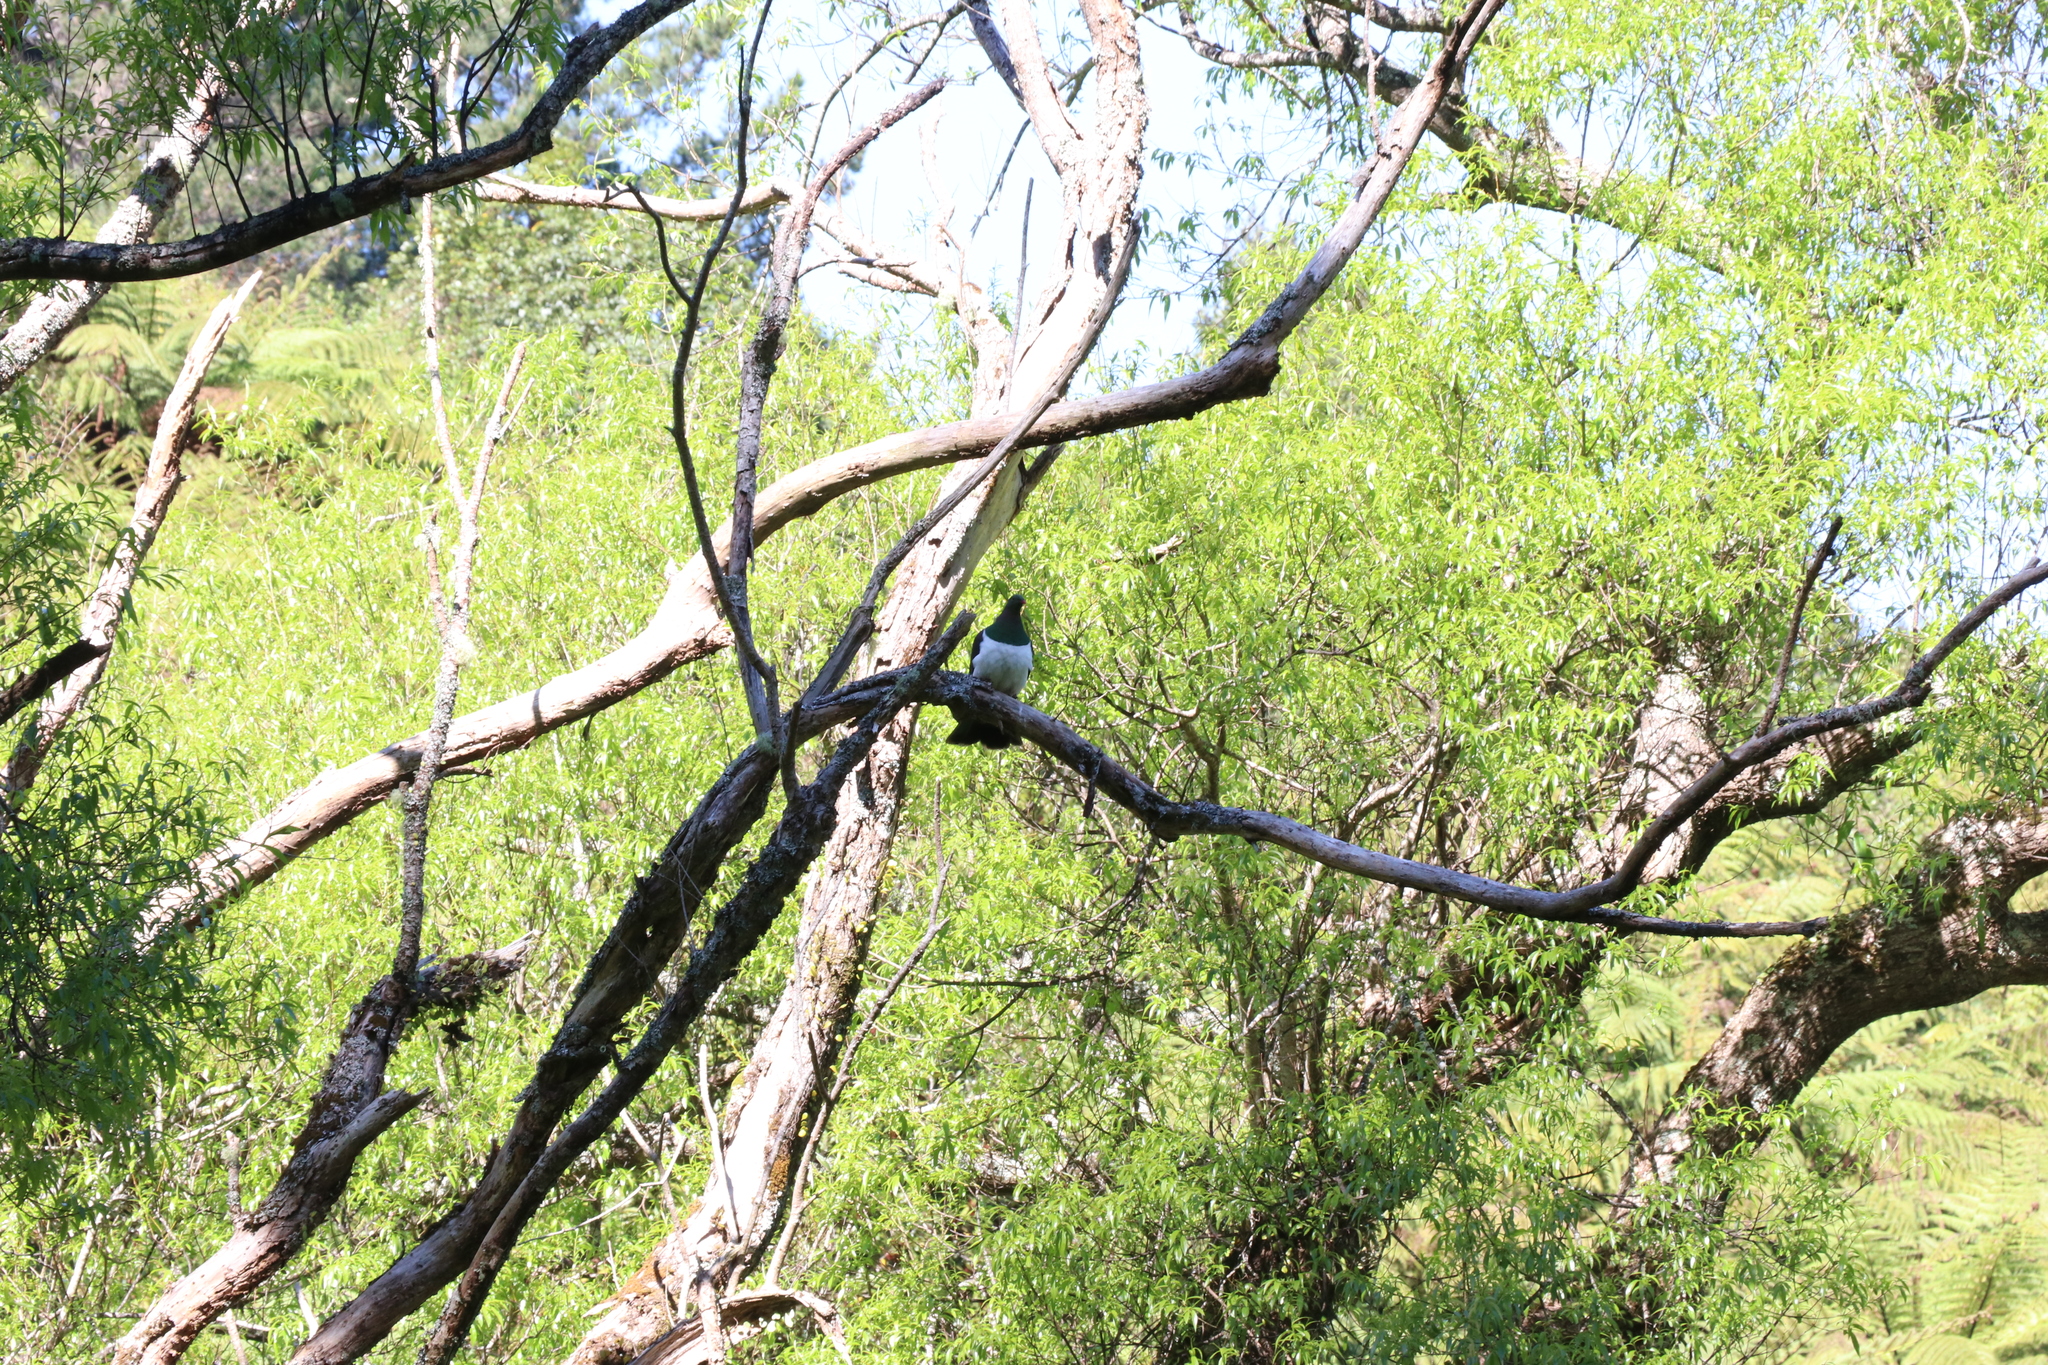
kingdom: Animalia
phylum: Chordata
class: Aves
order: Columbiformes
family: Columbidae
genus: Hemiphaga
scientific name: Hemiphaga novaeseelandiae
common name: New zealand pigeon
